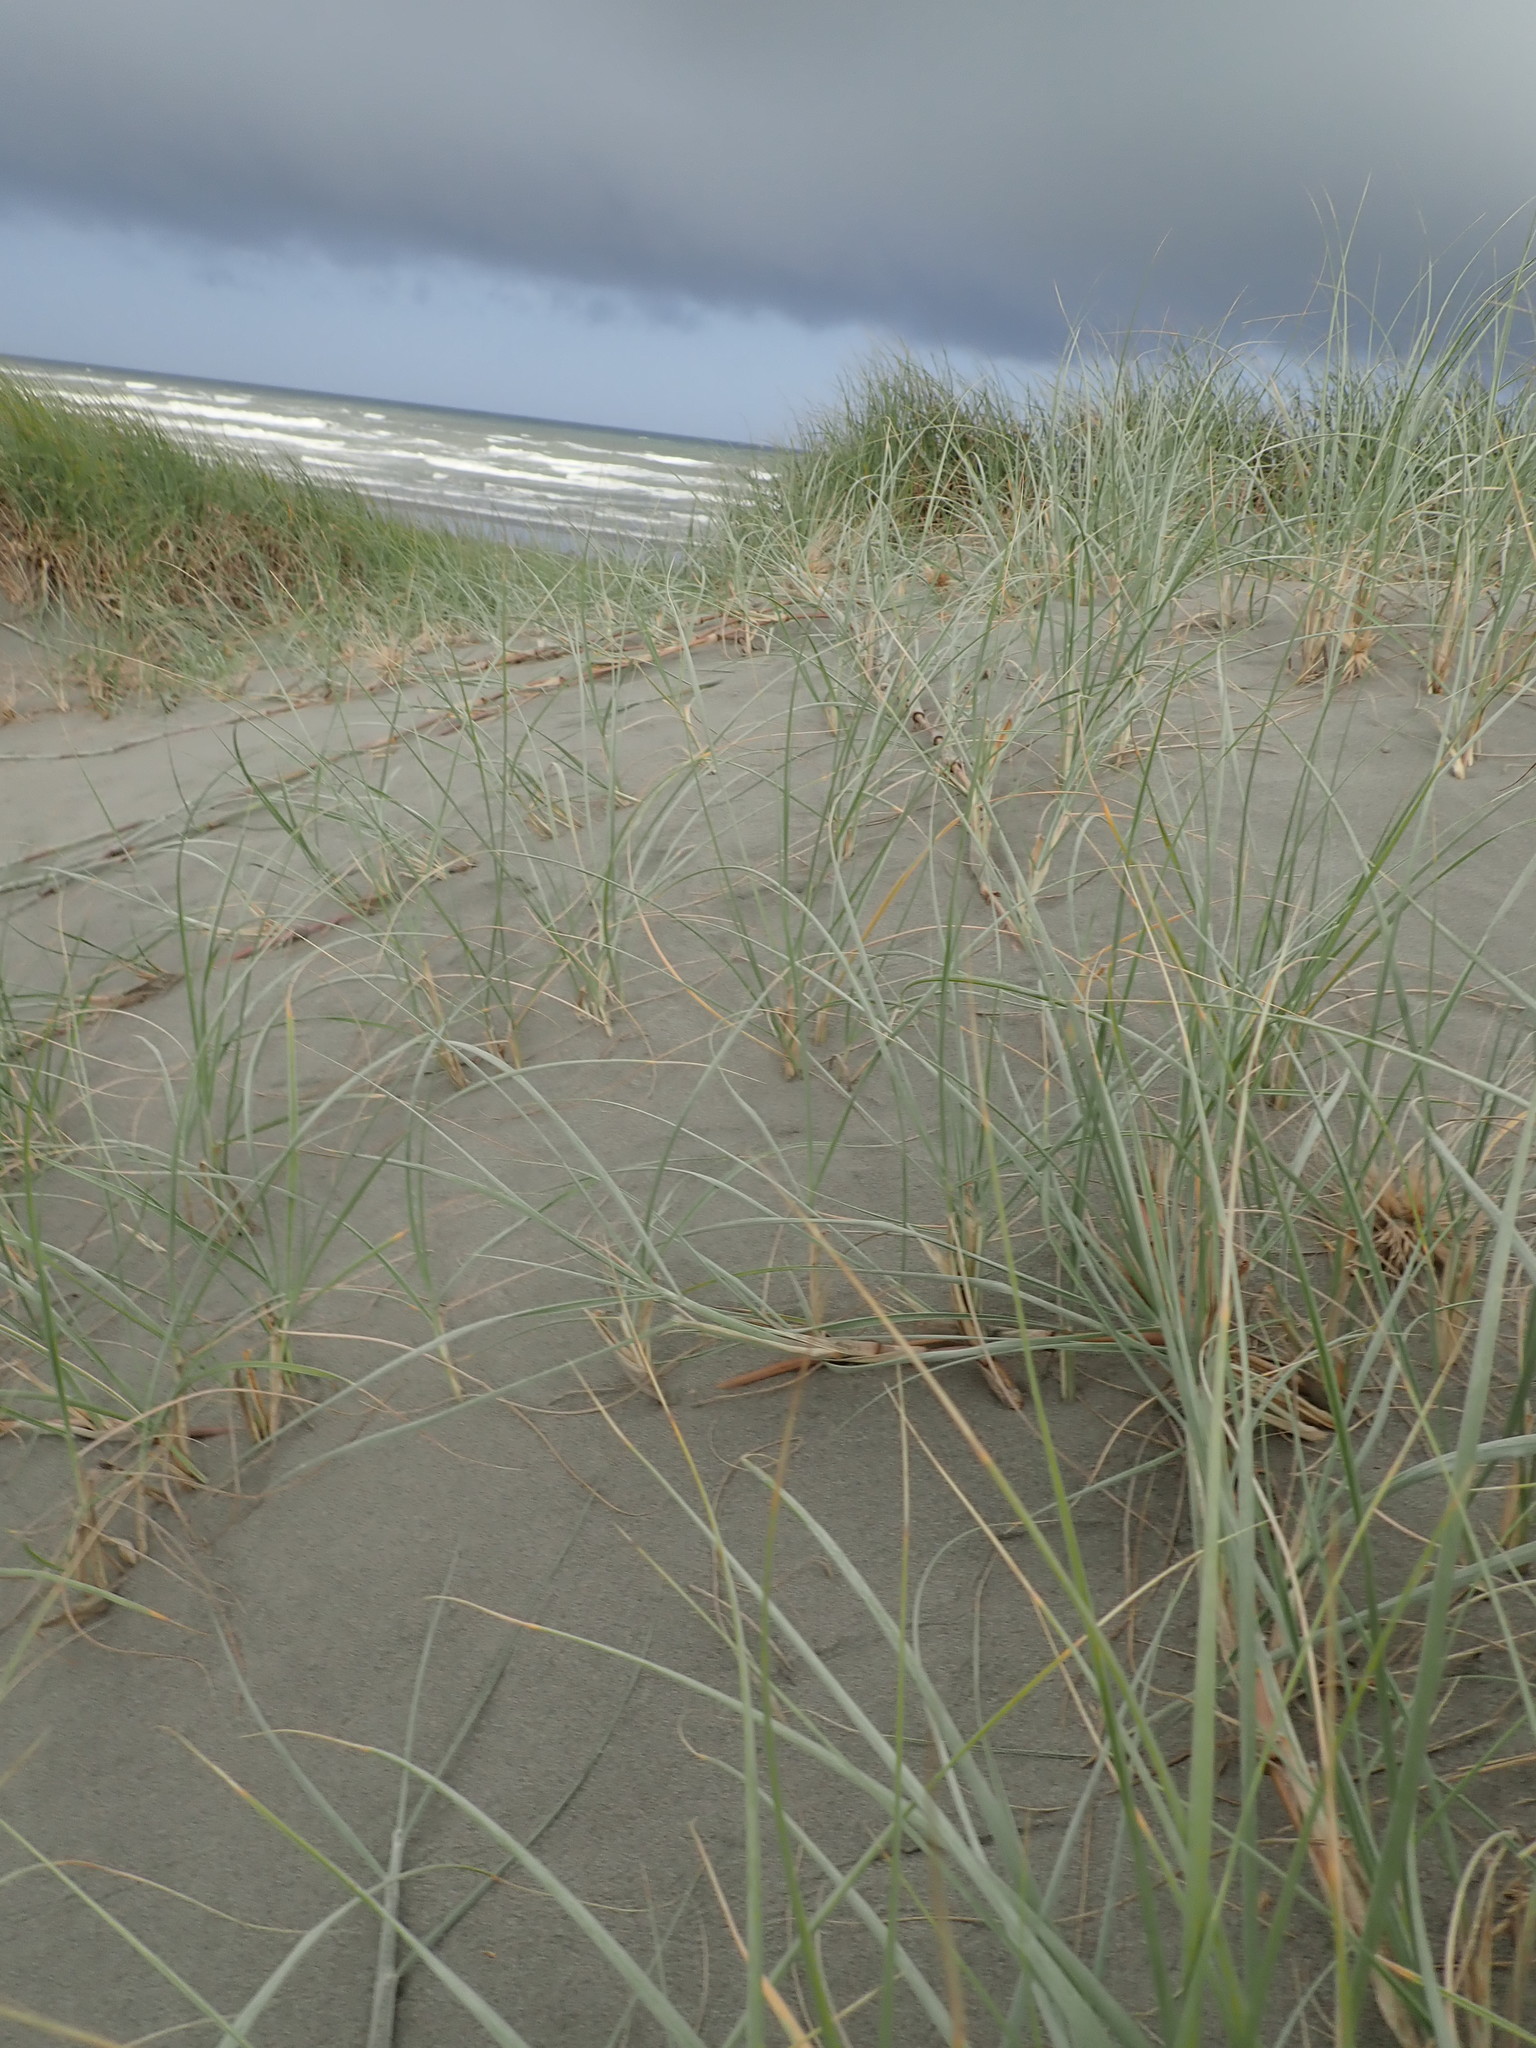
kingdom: Plantae
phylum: Tracheophyta
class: Liliopsida
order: Poales
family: Poaceae
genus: Spinifex
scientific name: Spinifex sericeus
